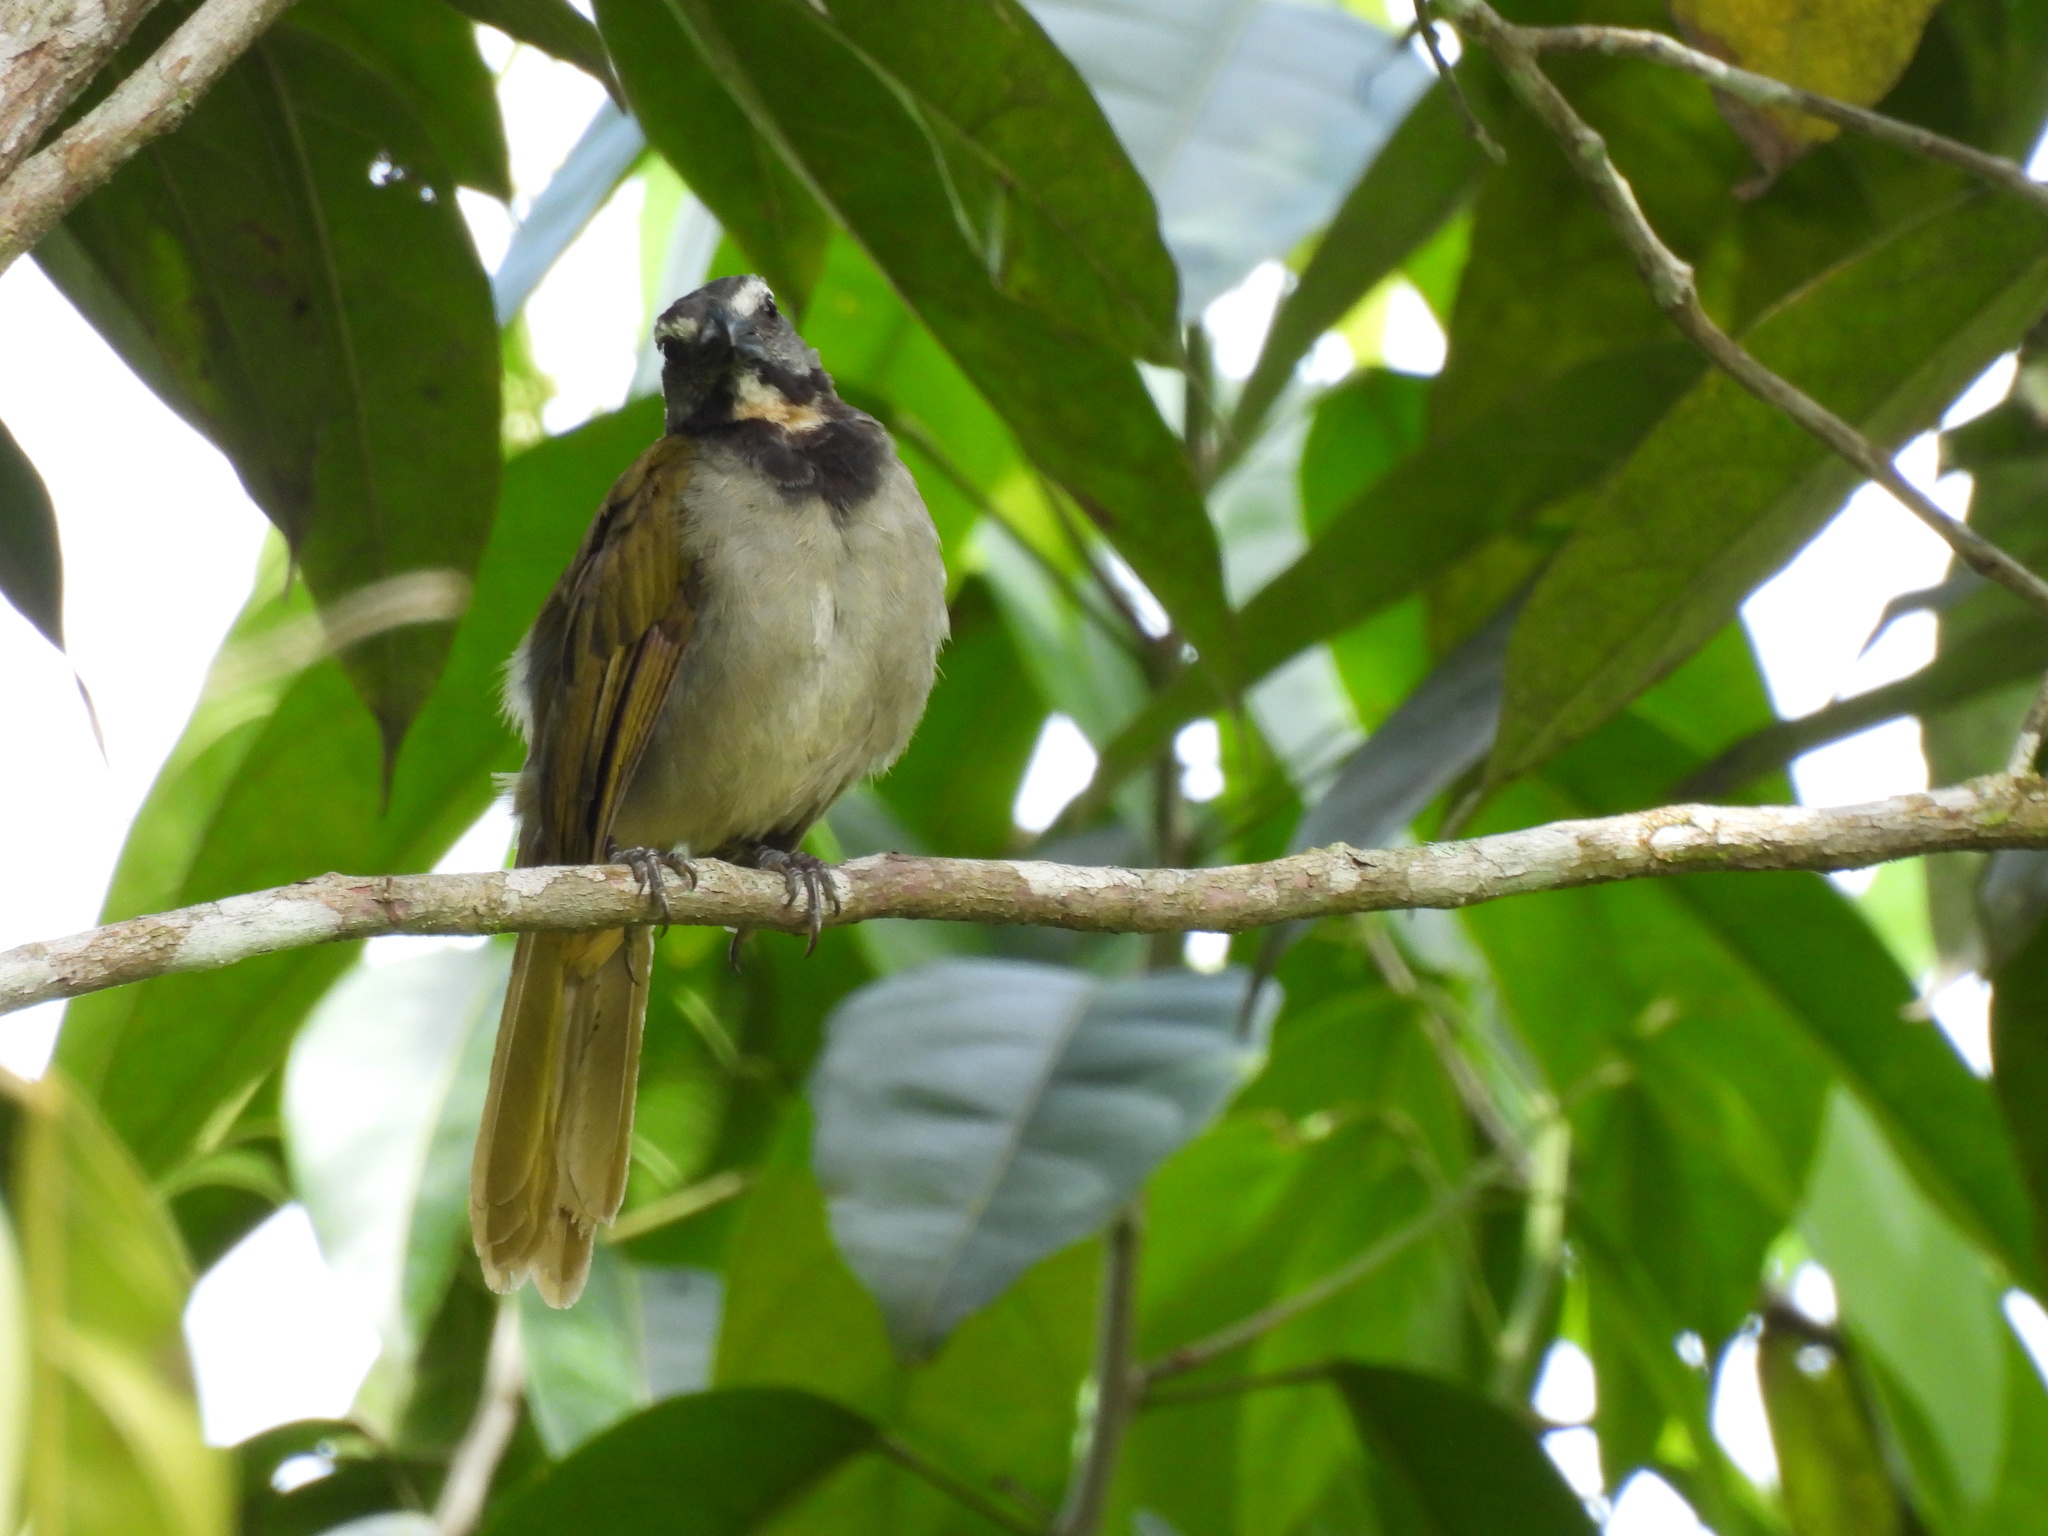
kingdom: Animalia
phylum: Chordata
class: Aves
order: Passeriformes
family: Thraupidae
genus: Saltator
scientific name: Saltator maximus
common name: Buff-throated saltator
